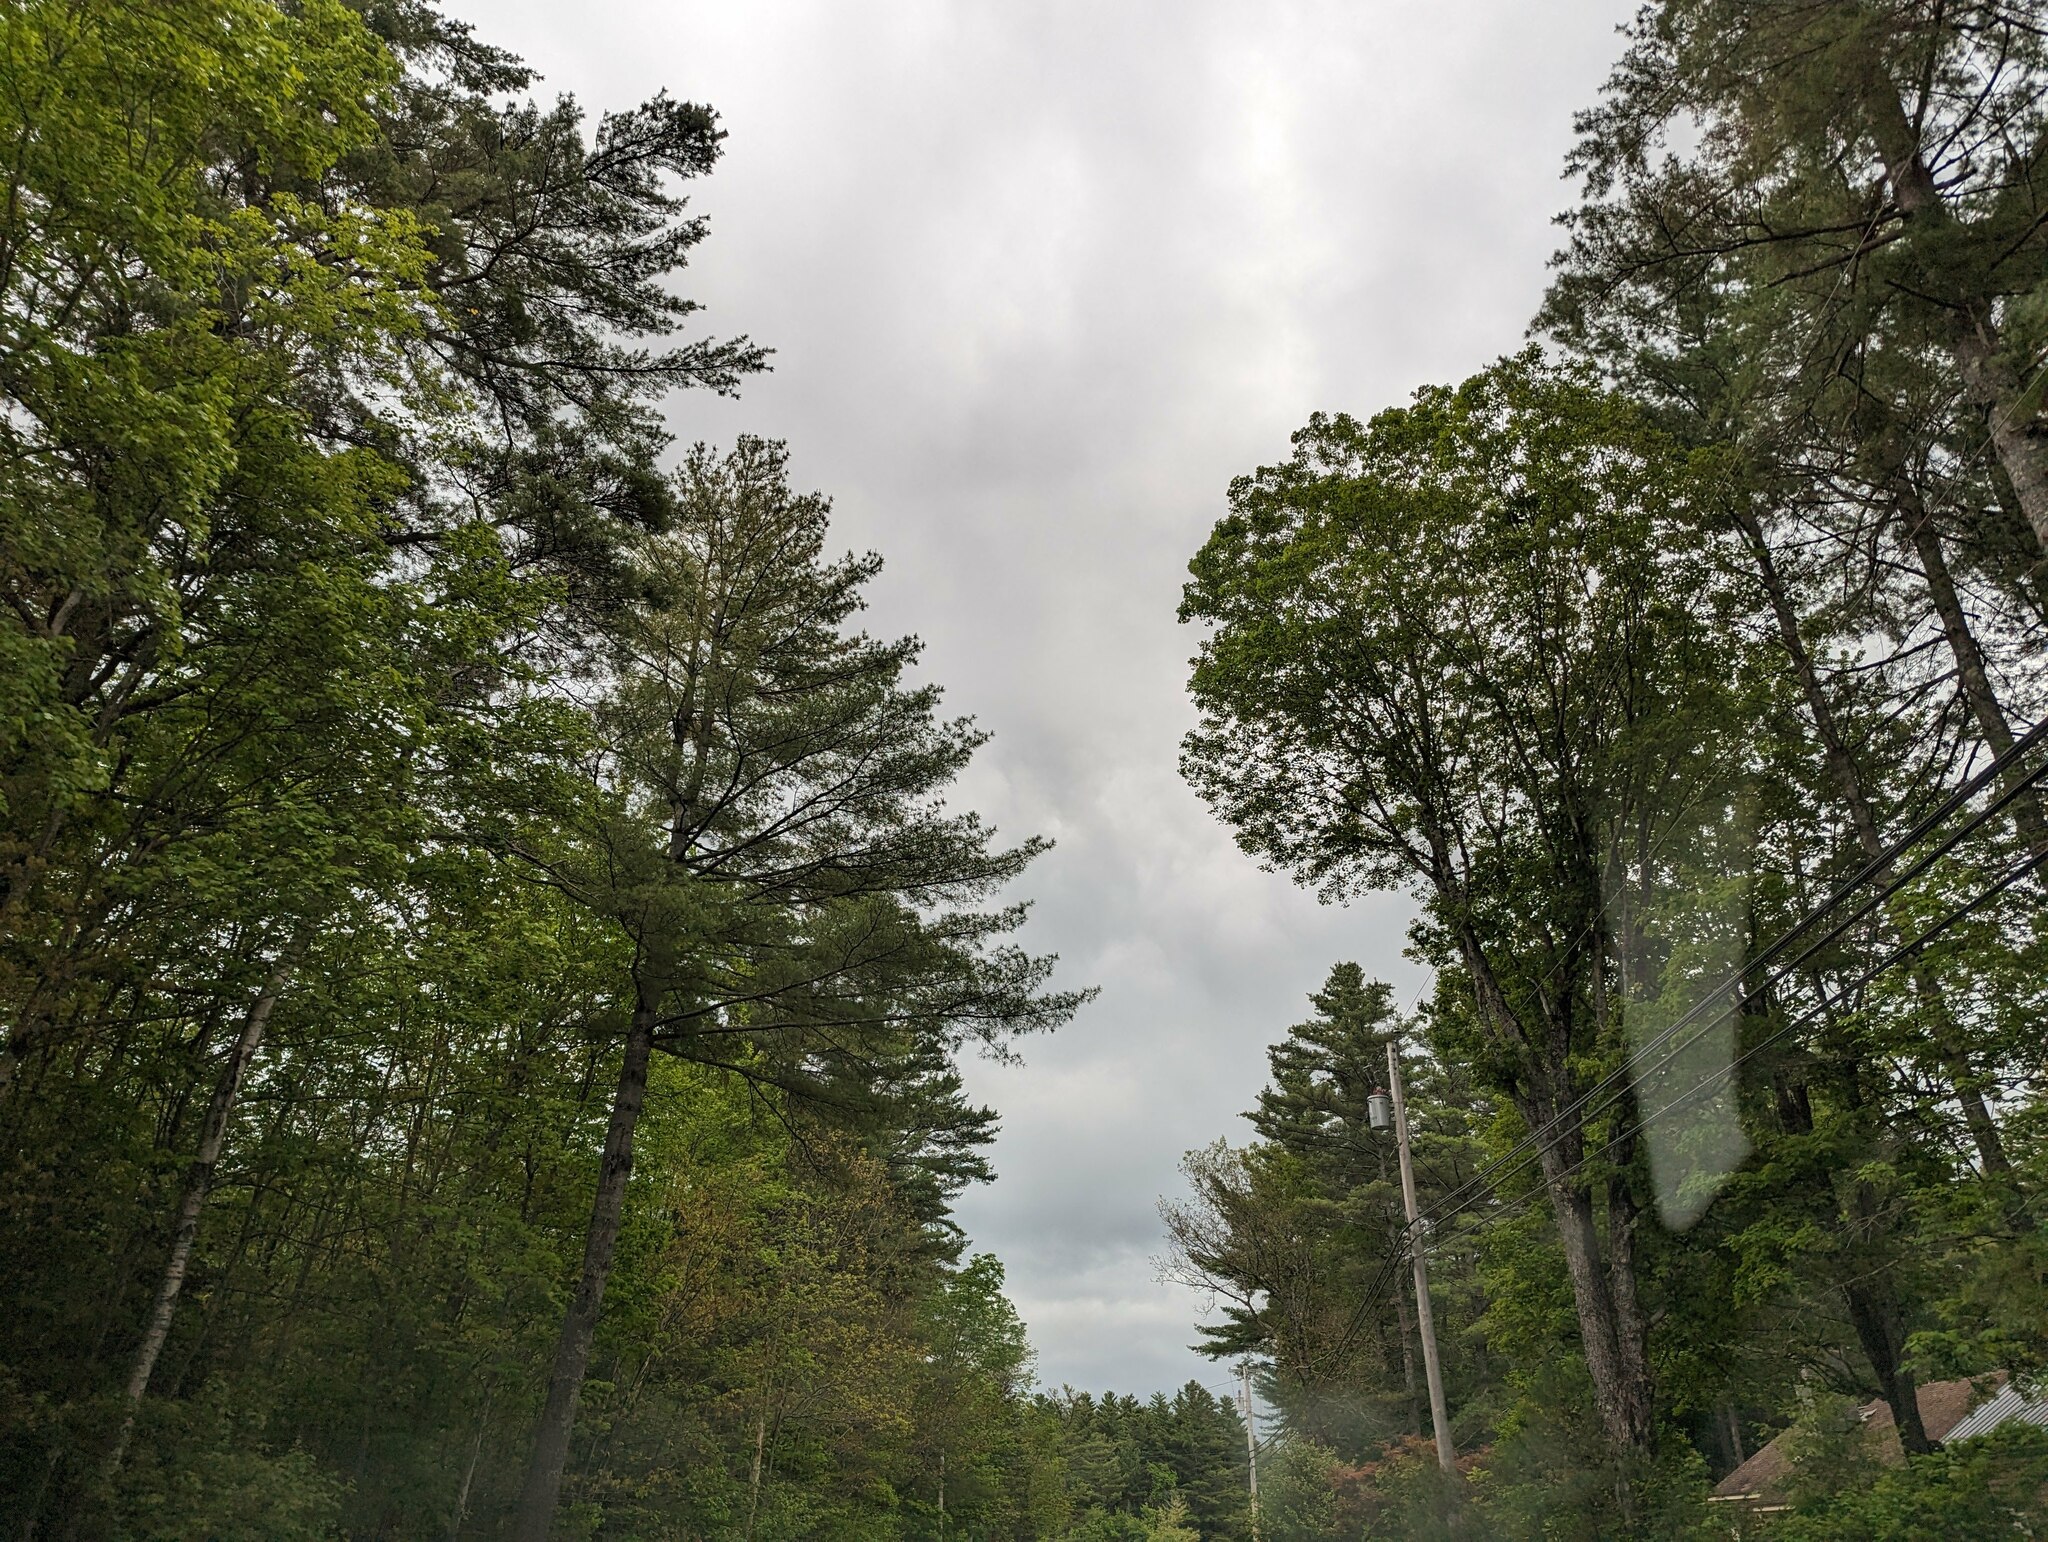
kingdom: Plantae
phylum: Tracheophyta
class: Pinopsida
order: Pinales
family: Pinaceae
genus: Pinus
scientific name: Pinus strobus
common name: Weymouth pine
